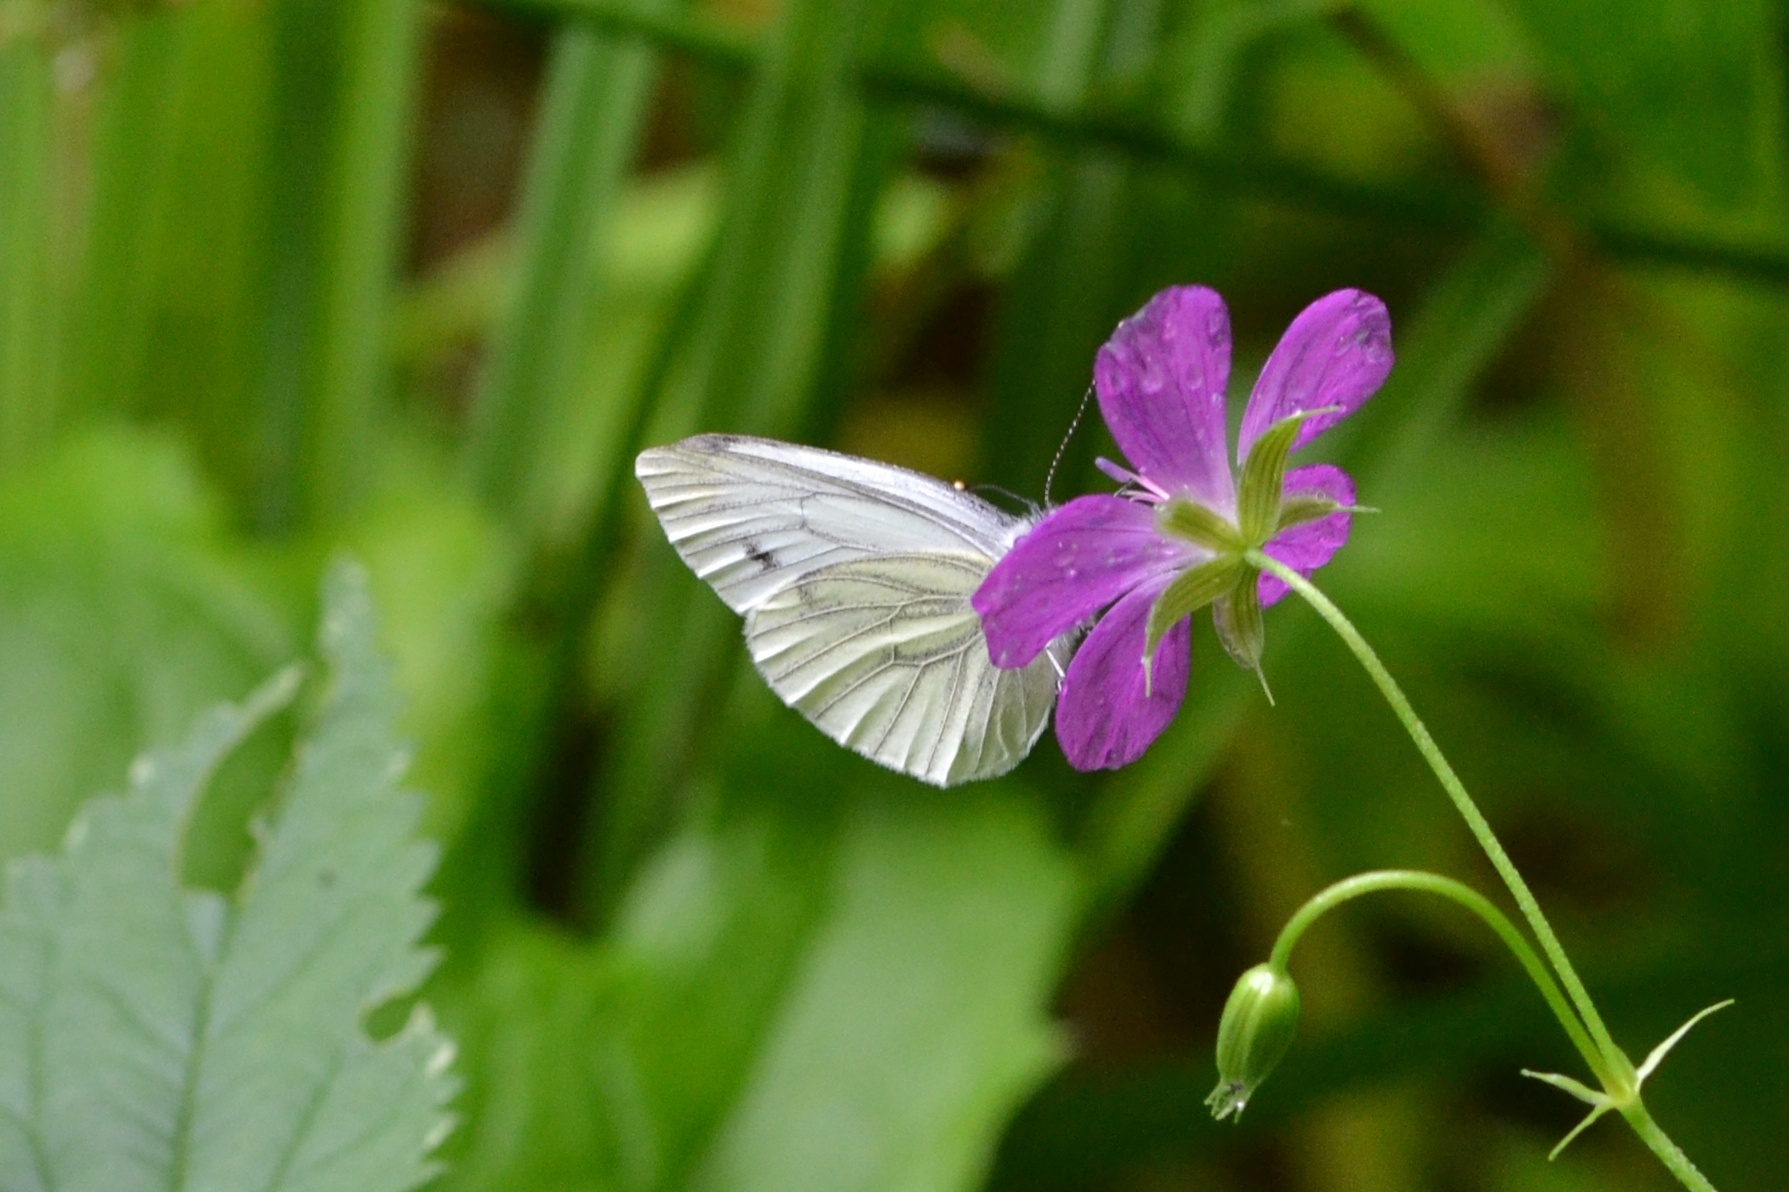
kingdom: Animalia
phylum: Arthropoda
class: Insecta
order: Lepidoptera
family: Pieridae
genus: Pieris
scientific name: Pieris napi
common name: Green-veined white
